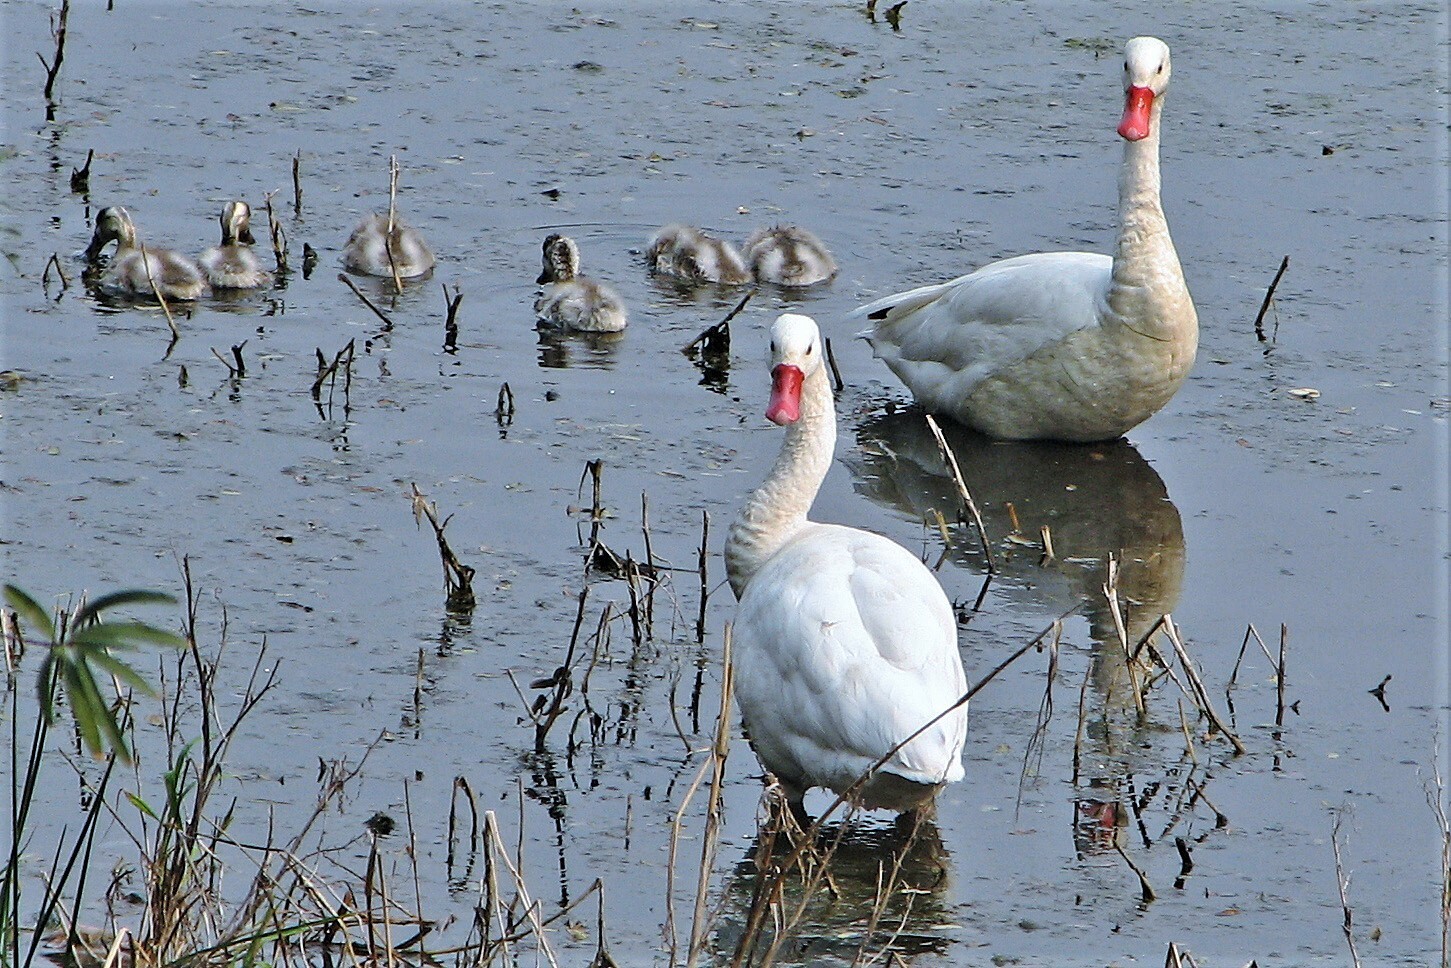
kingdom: Animalia
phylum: Chordata
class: Aves
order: Anseriformes
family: Anatidae
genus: Coscoroba
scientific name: Coscoroba coscoroba
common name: Coscoroba swan
